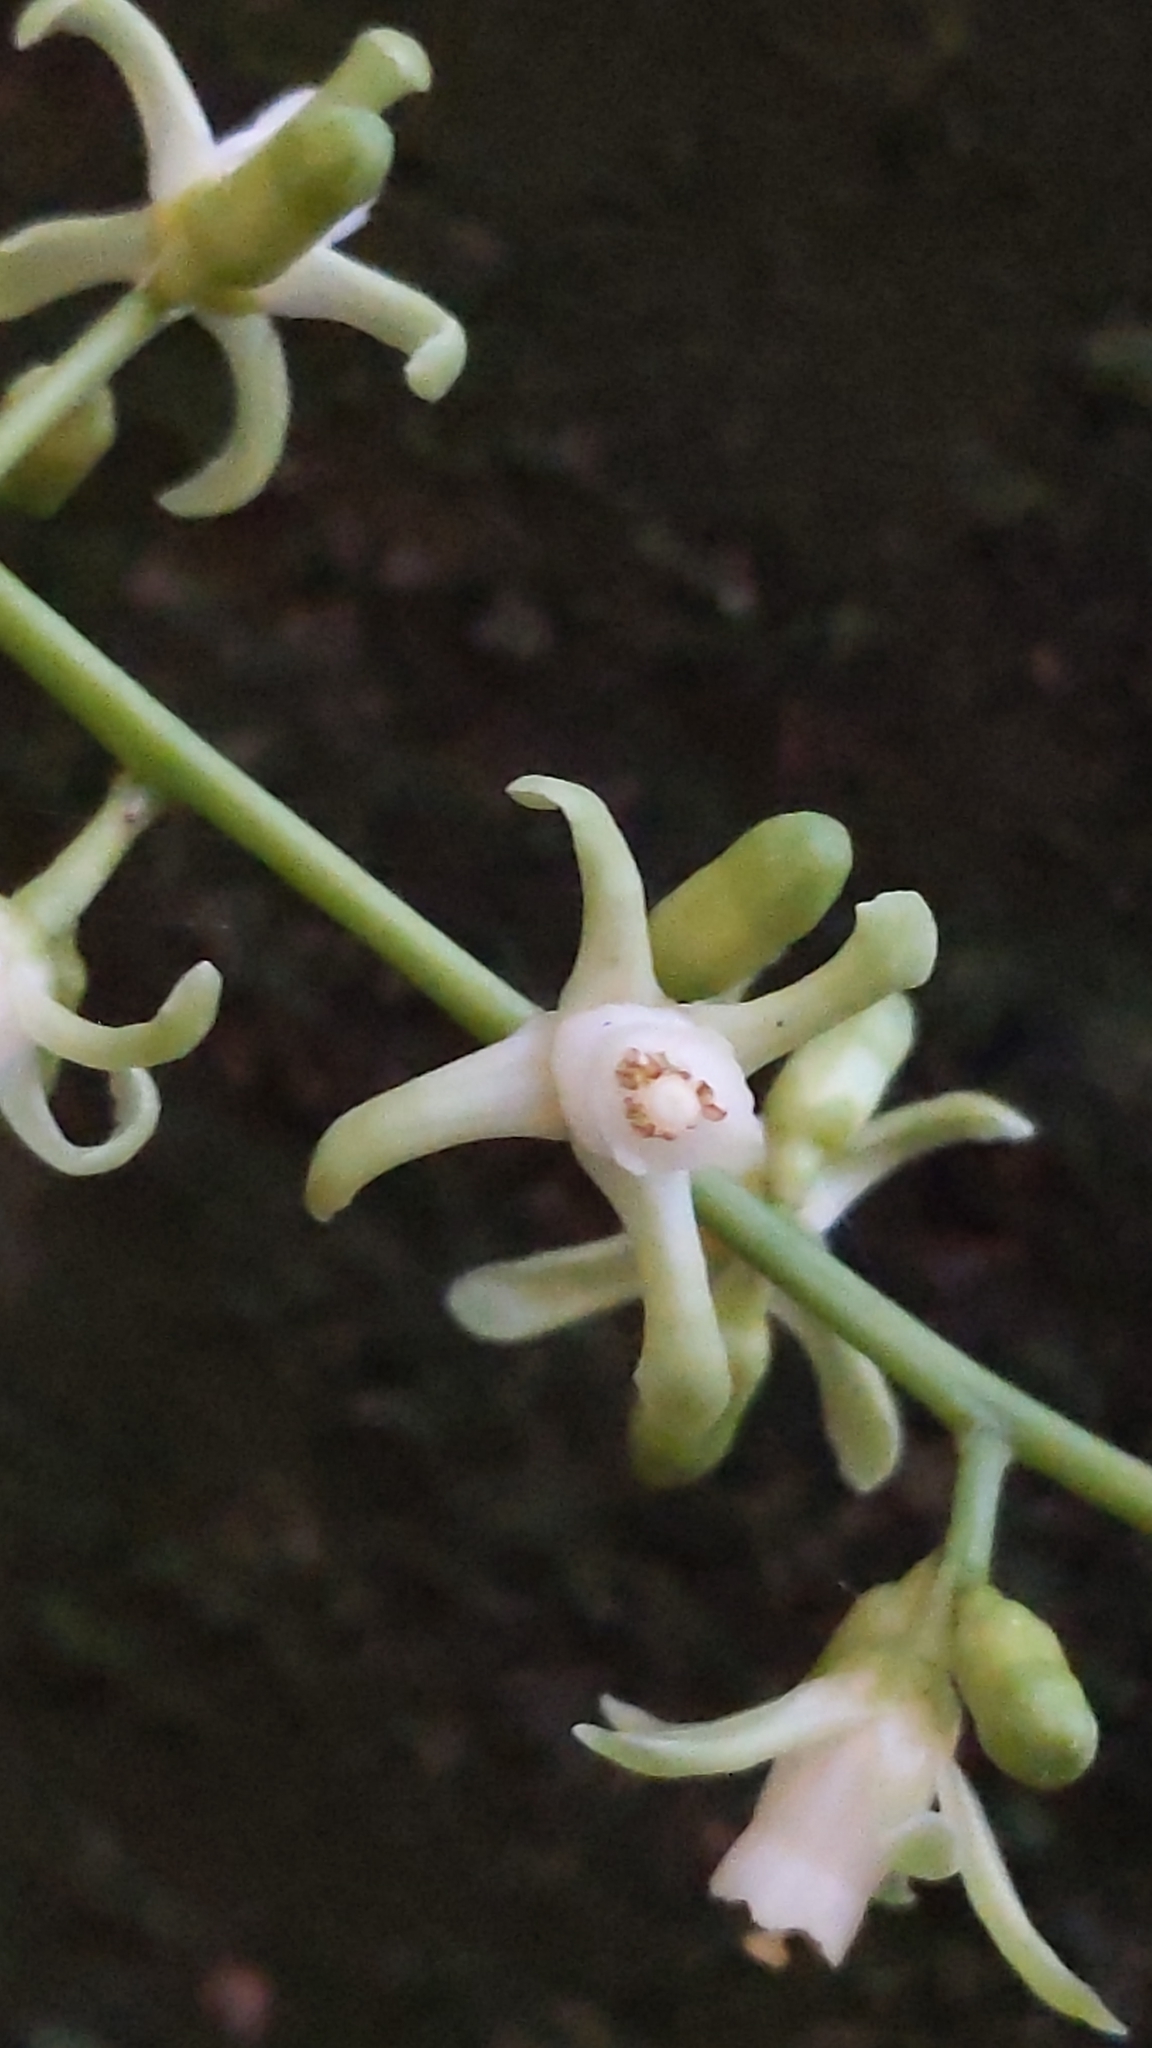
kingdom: Plantae
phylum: Tracheophyta
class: Magnoliopsida
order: Sapindales
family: Meliaceae
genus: Didymocheton
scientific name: Didymocheton spectabilis
